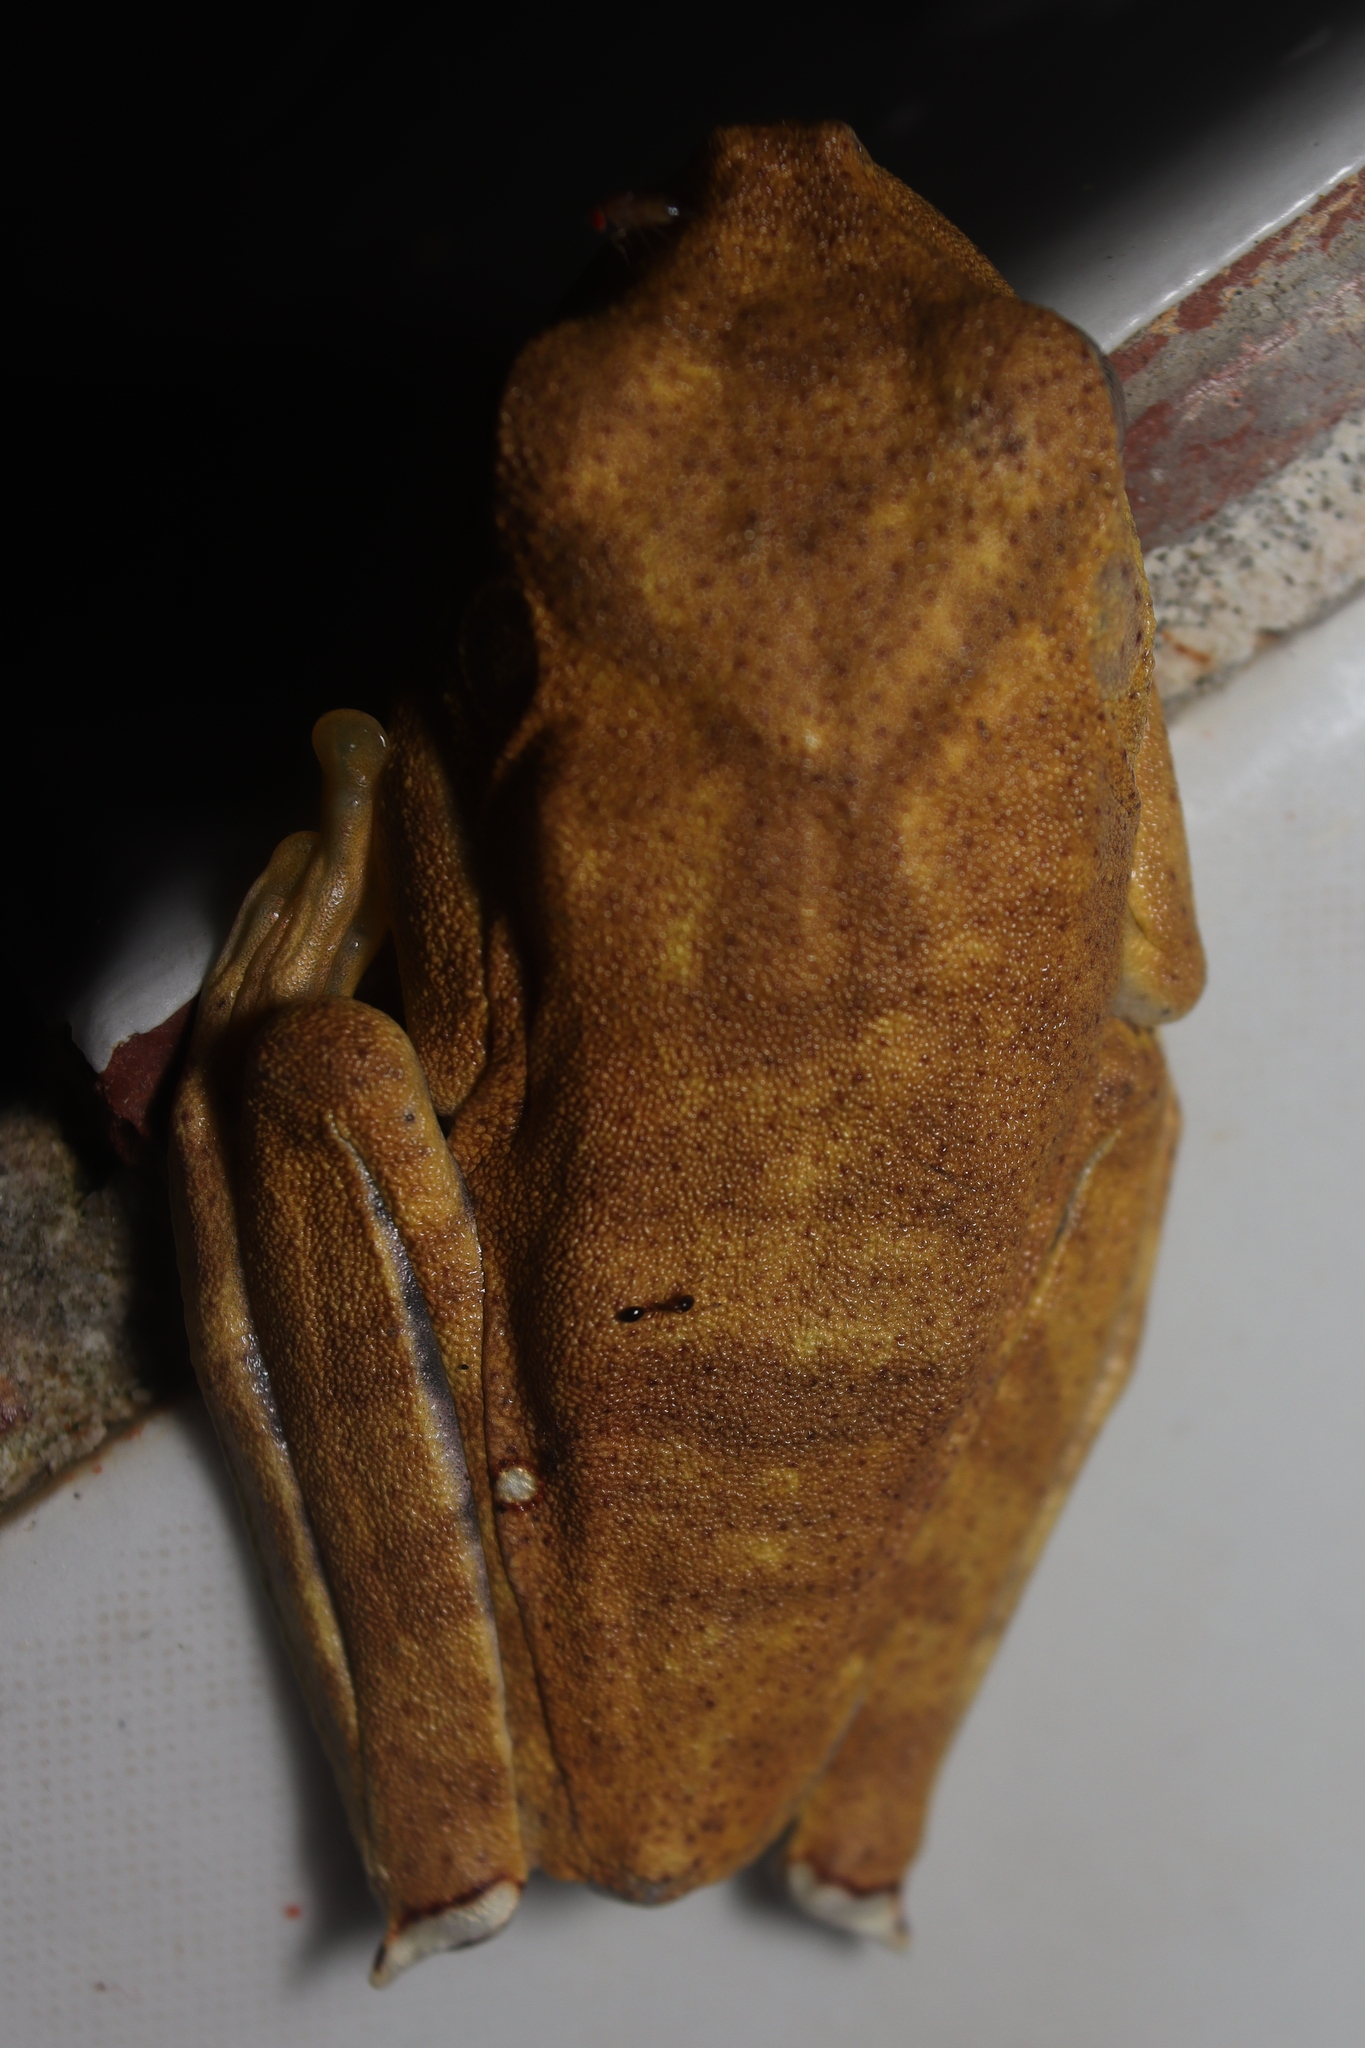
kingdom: Animalia
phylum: Chordata
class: Amphibia
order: Anura
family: Hylidae
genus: Boana
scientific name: Boana semilineata
